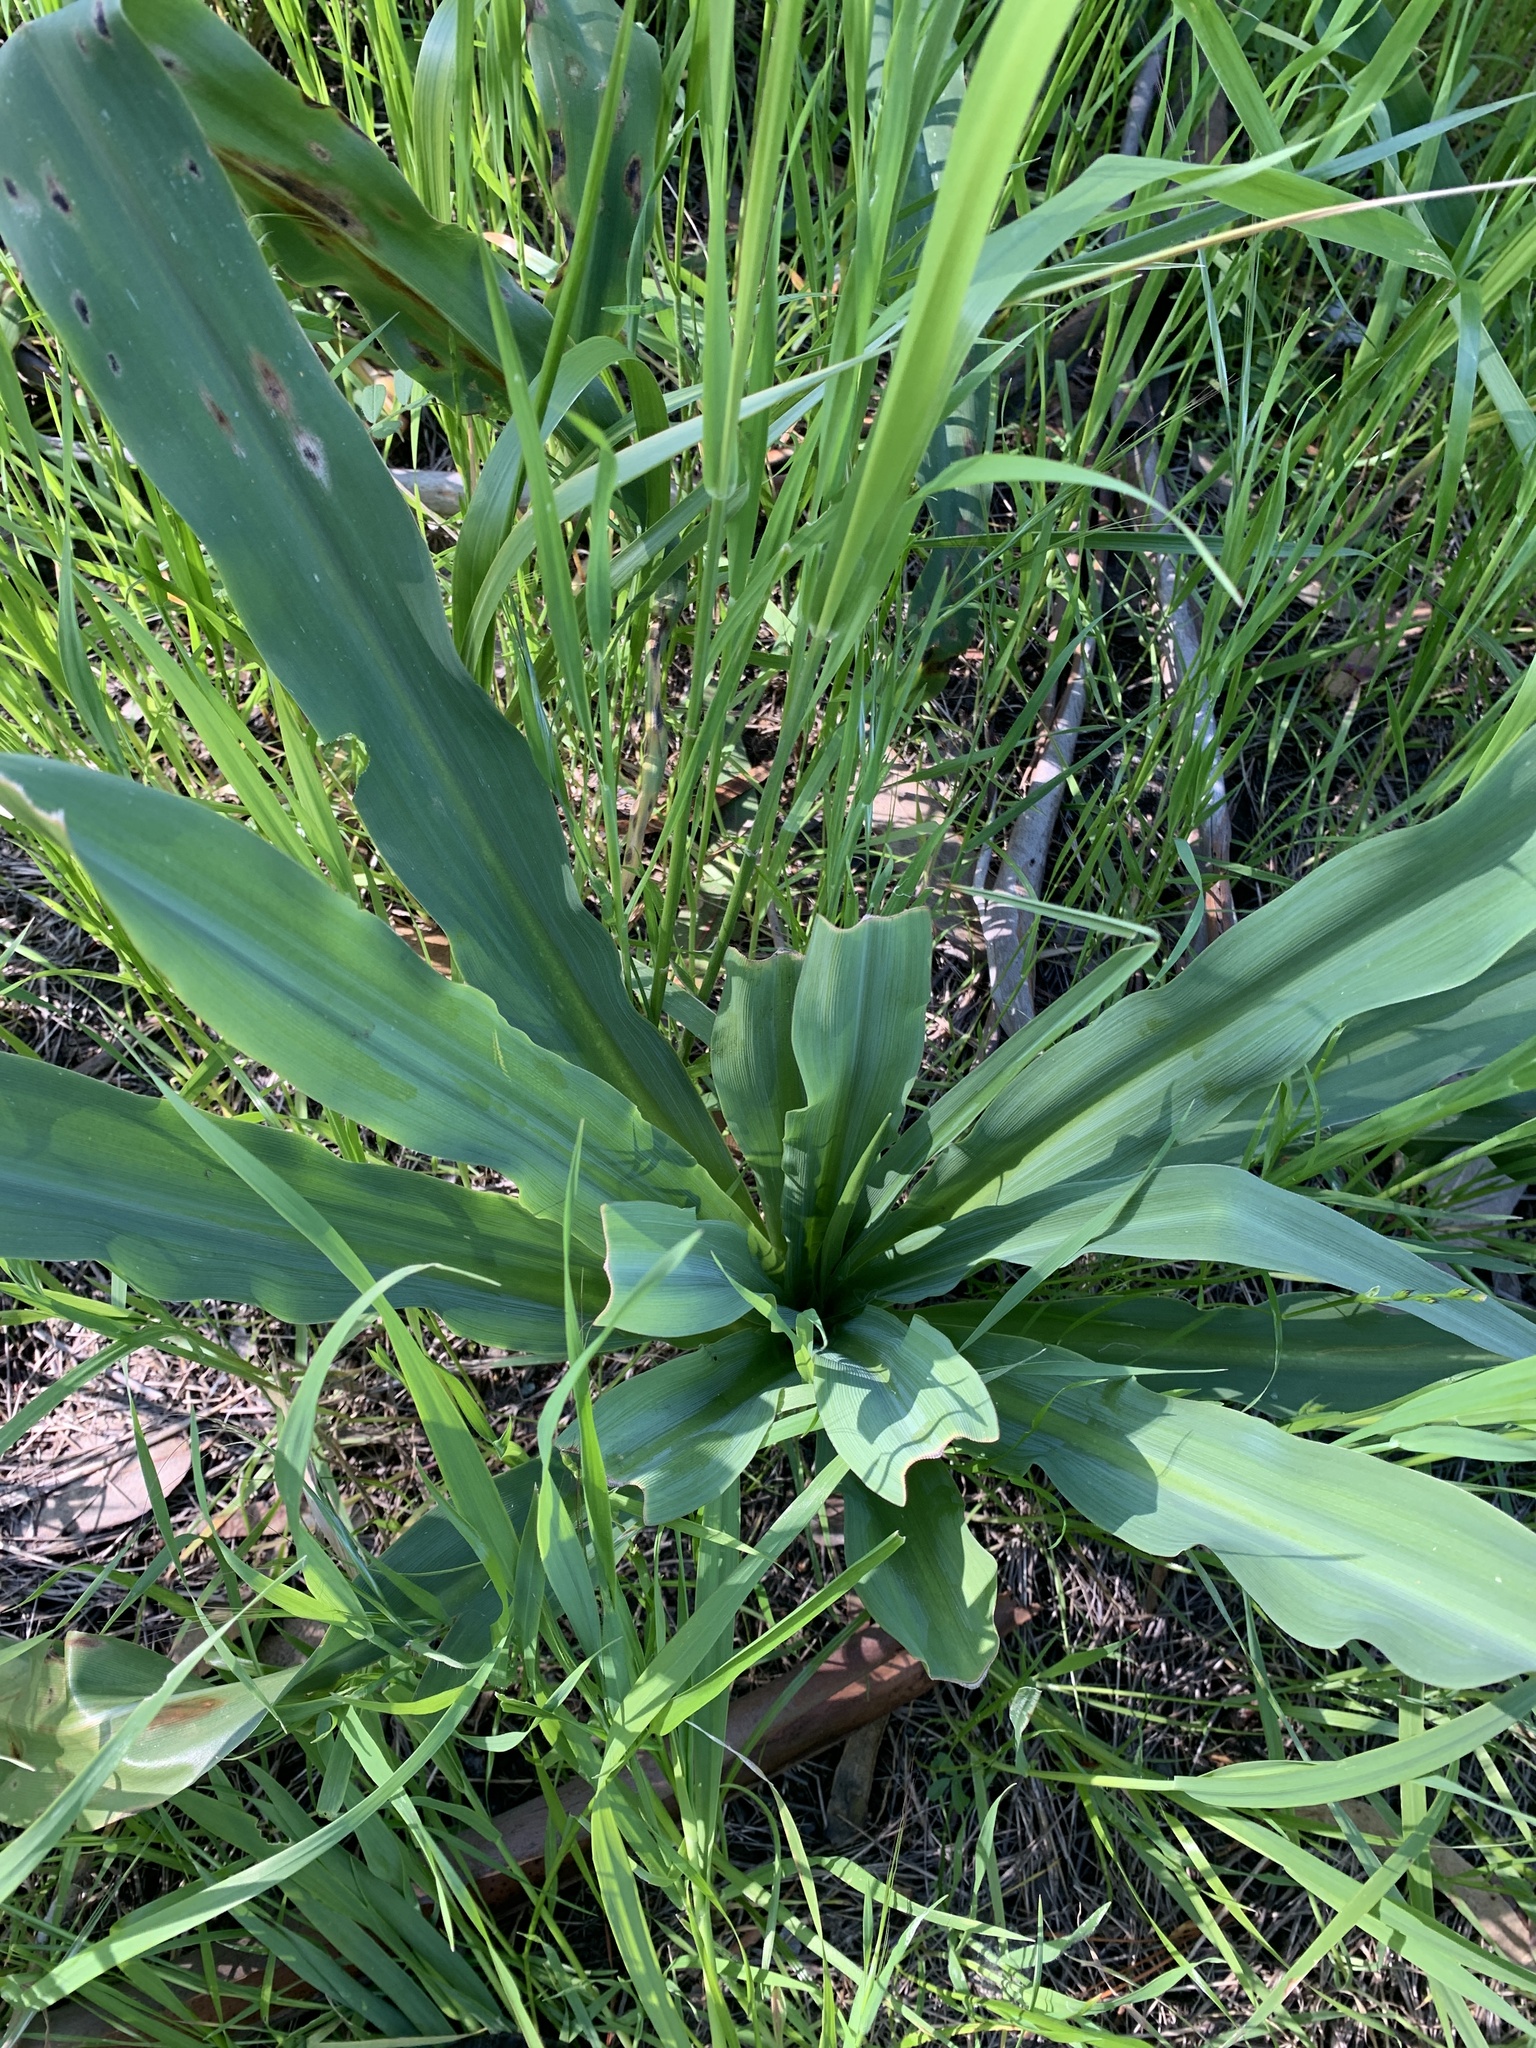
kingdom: Plantae
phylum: Tracheophyta
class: Liliopsida
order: Asparagales
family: Asparagaceae
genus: Chlorogalum
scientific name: Chlorogalum pomeridianum
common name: Amole
